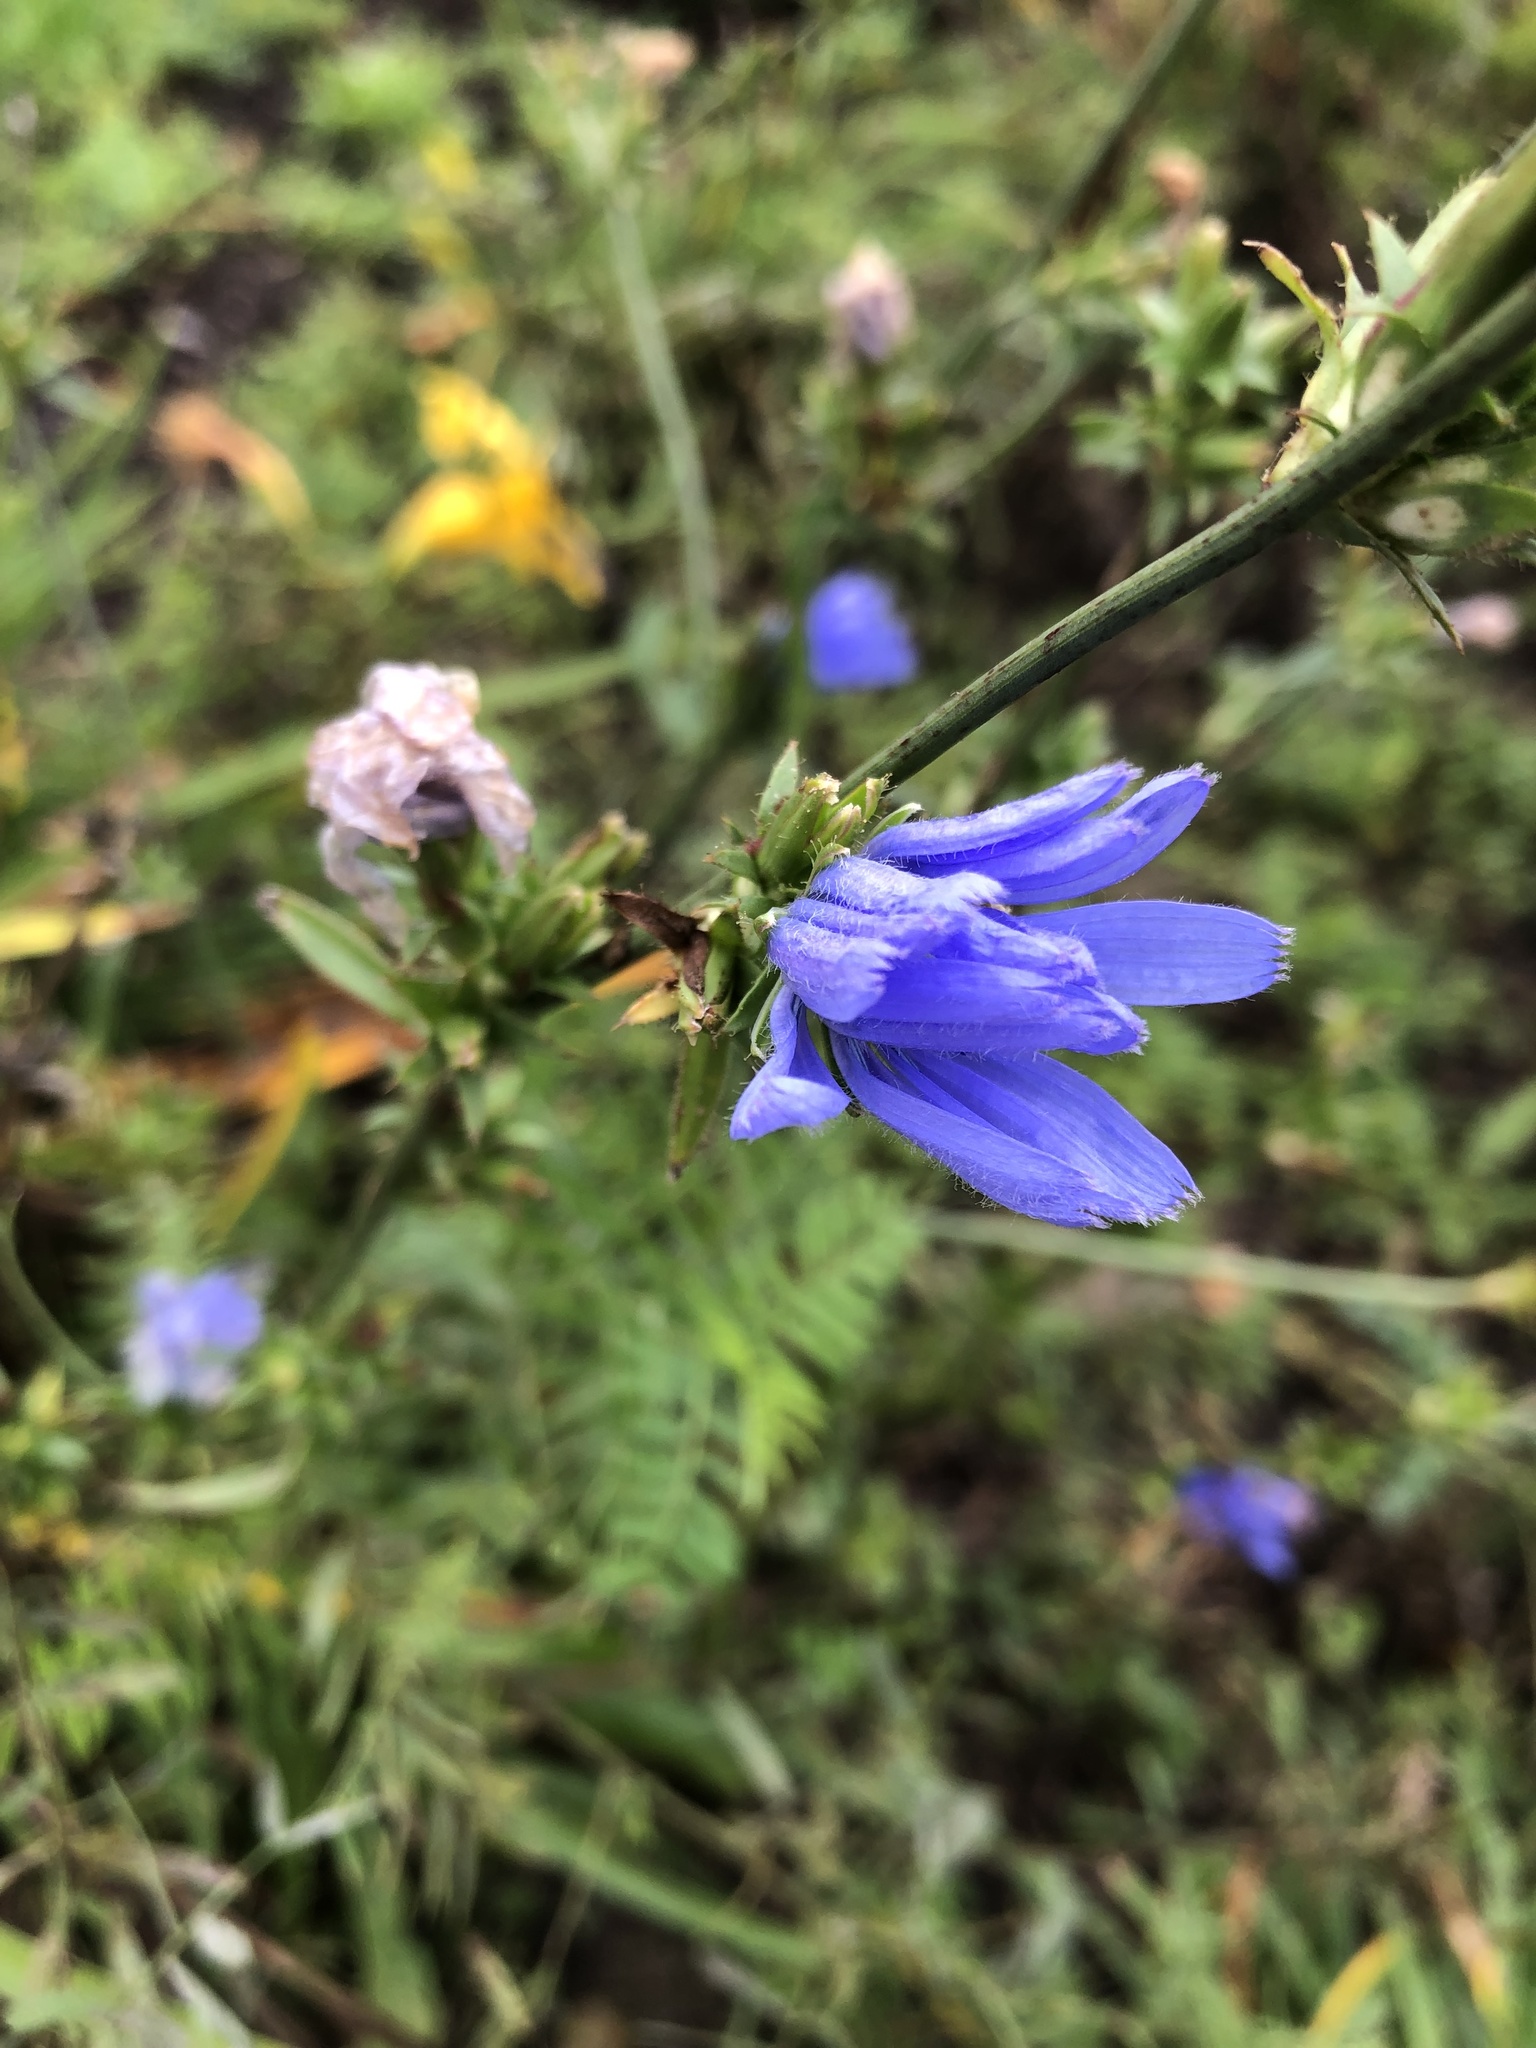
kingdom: Plantae
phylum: Tracheophyta
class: Magnoliopsida
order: Asterales
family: Asteraceae
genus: Cichorium
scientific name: Cichorium intybus
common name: Chicory
